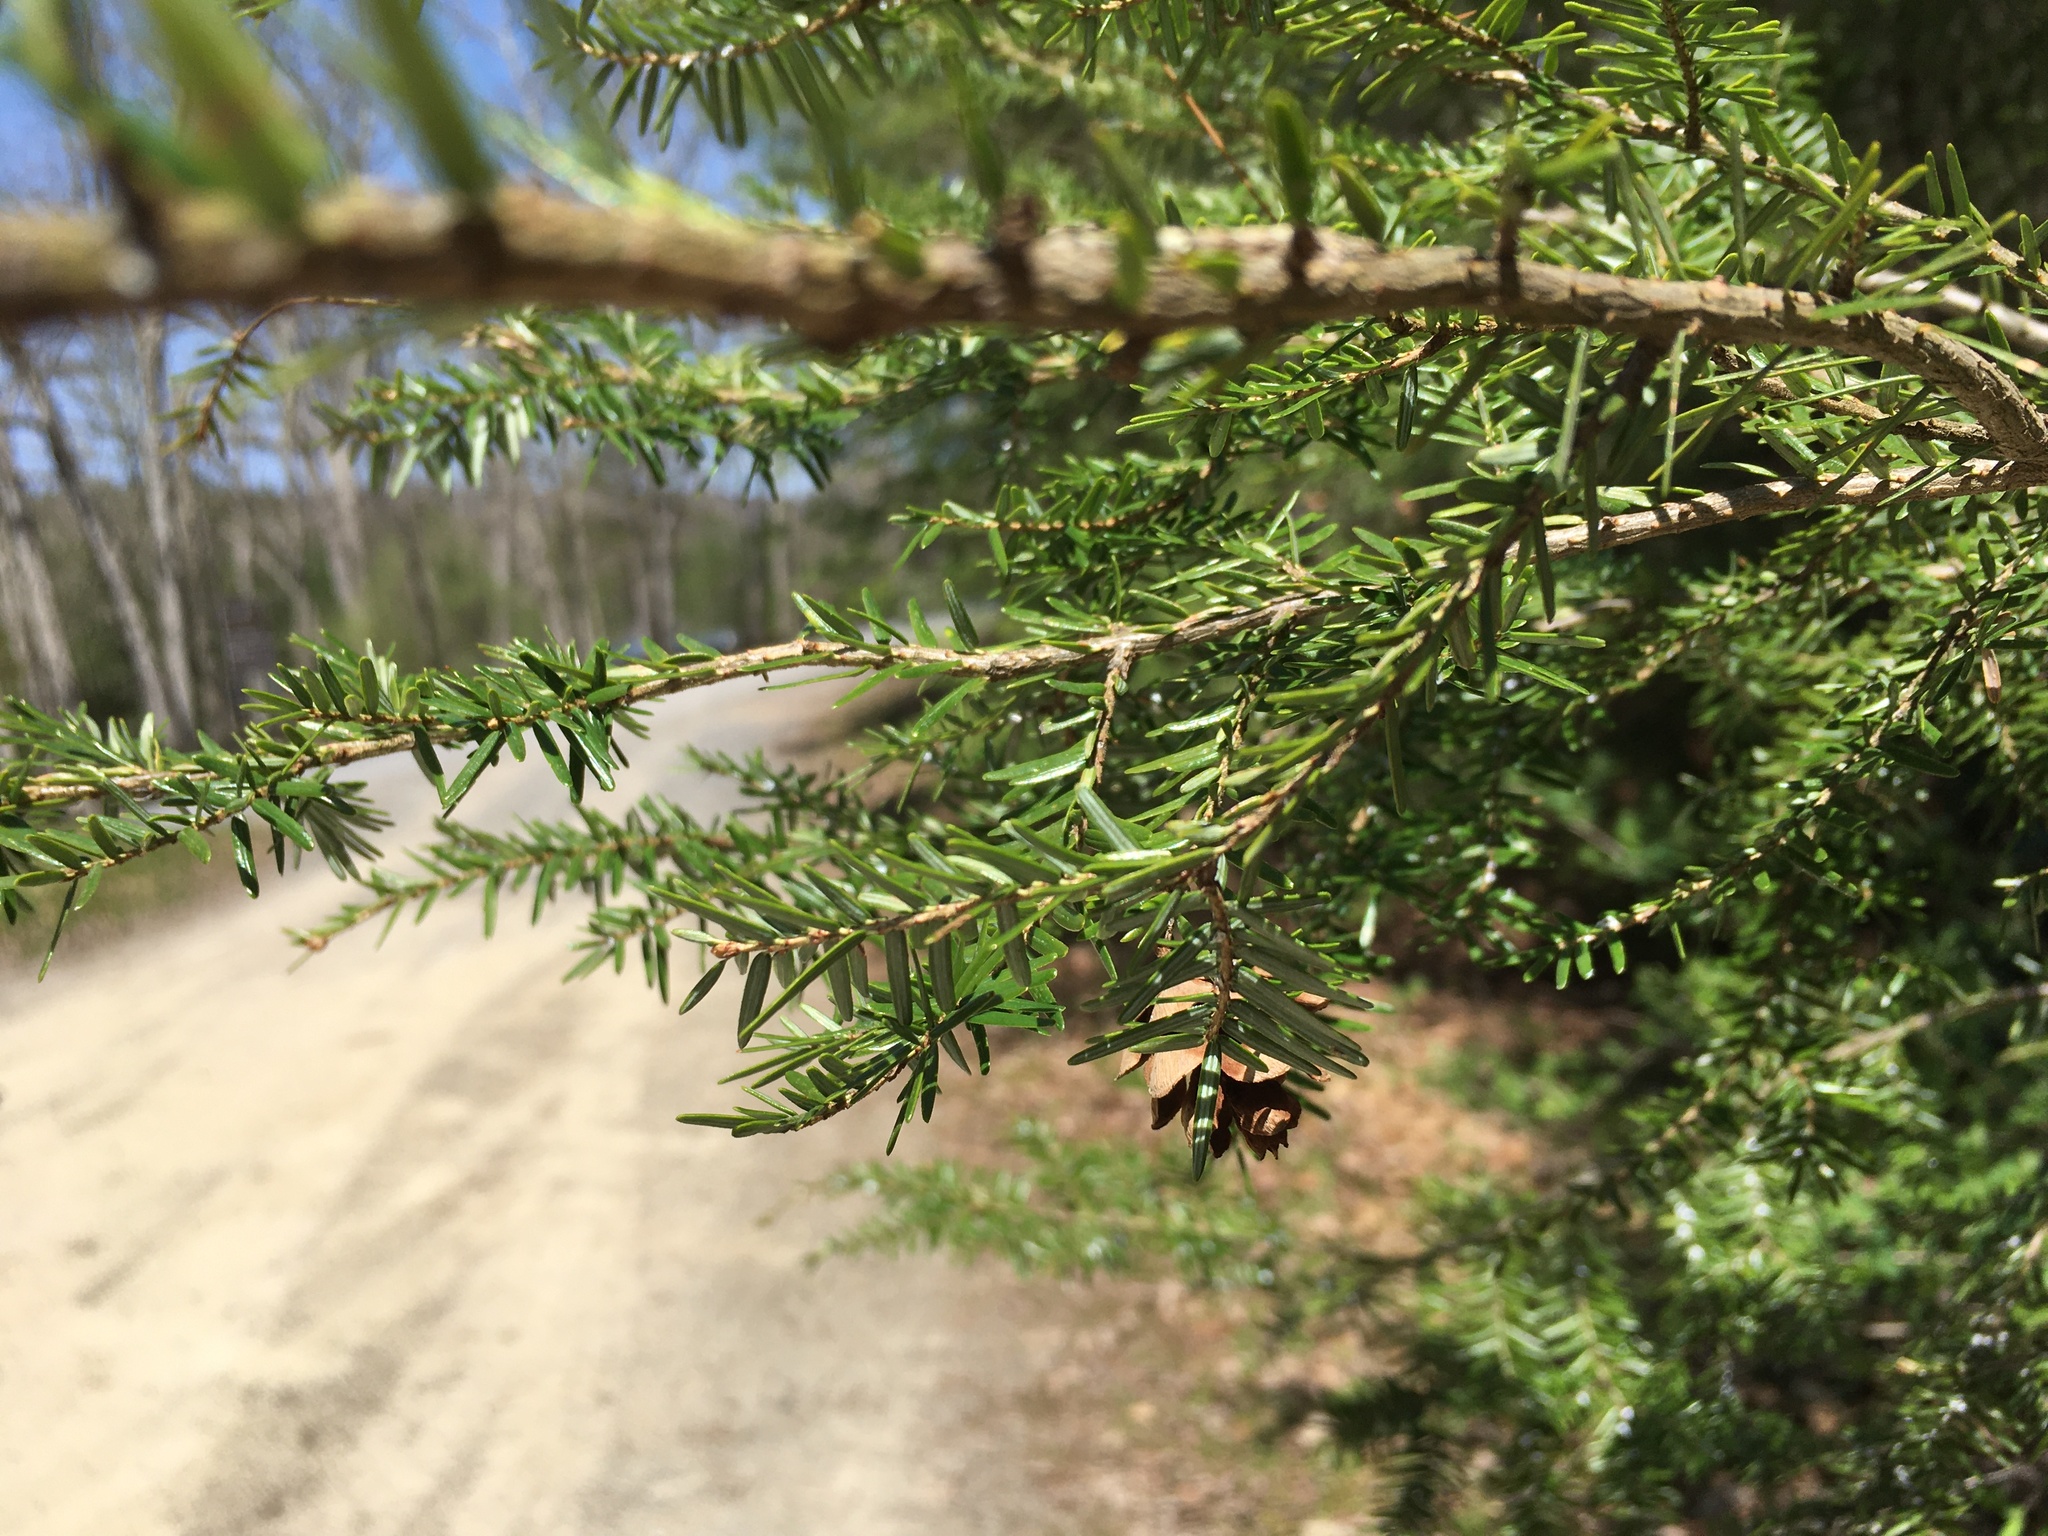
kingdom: Plantae
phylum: Tracheophyta
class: Pinopsida
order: Pinales
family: Pinaceae
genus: Tsuga
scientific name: Tsuga canadensis
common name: Eastern hemlock
